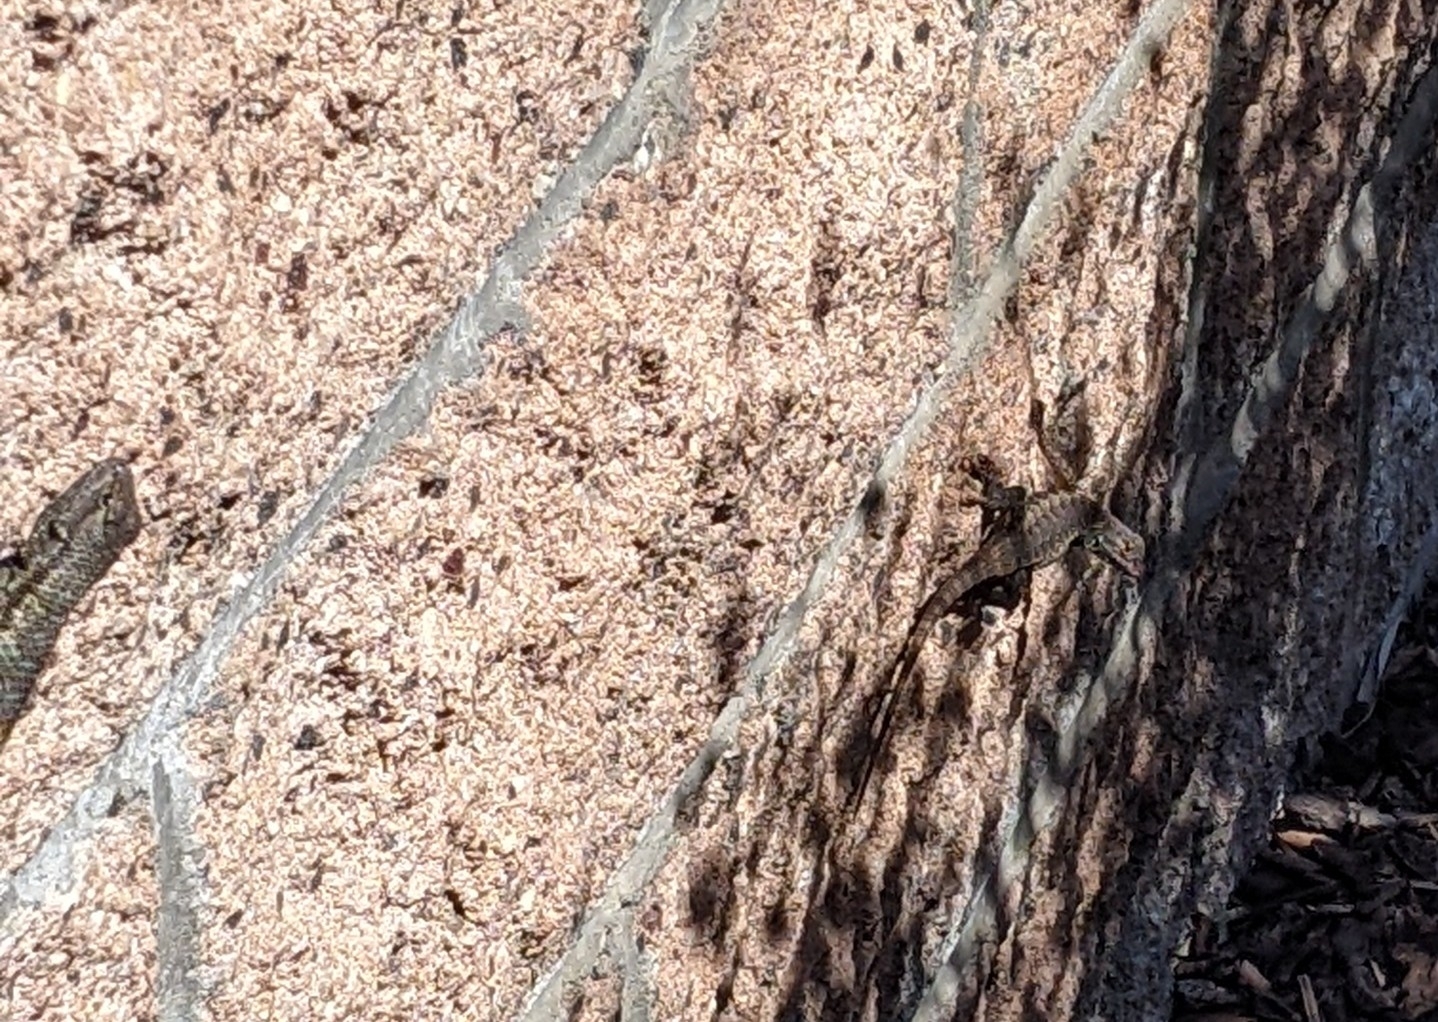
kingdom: Animalia
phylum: Chordata
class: Squamata
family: Phrynosomatidae
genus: Sceloporus
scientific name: Sceloporus occidentalis
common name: Western fence lizard
